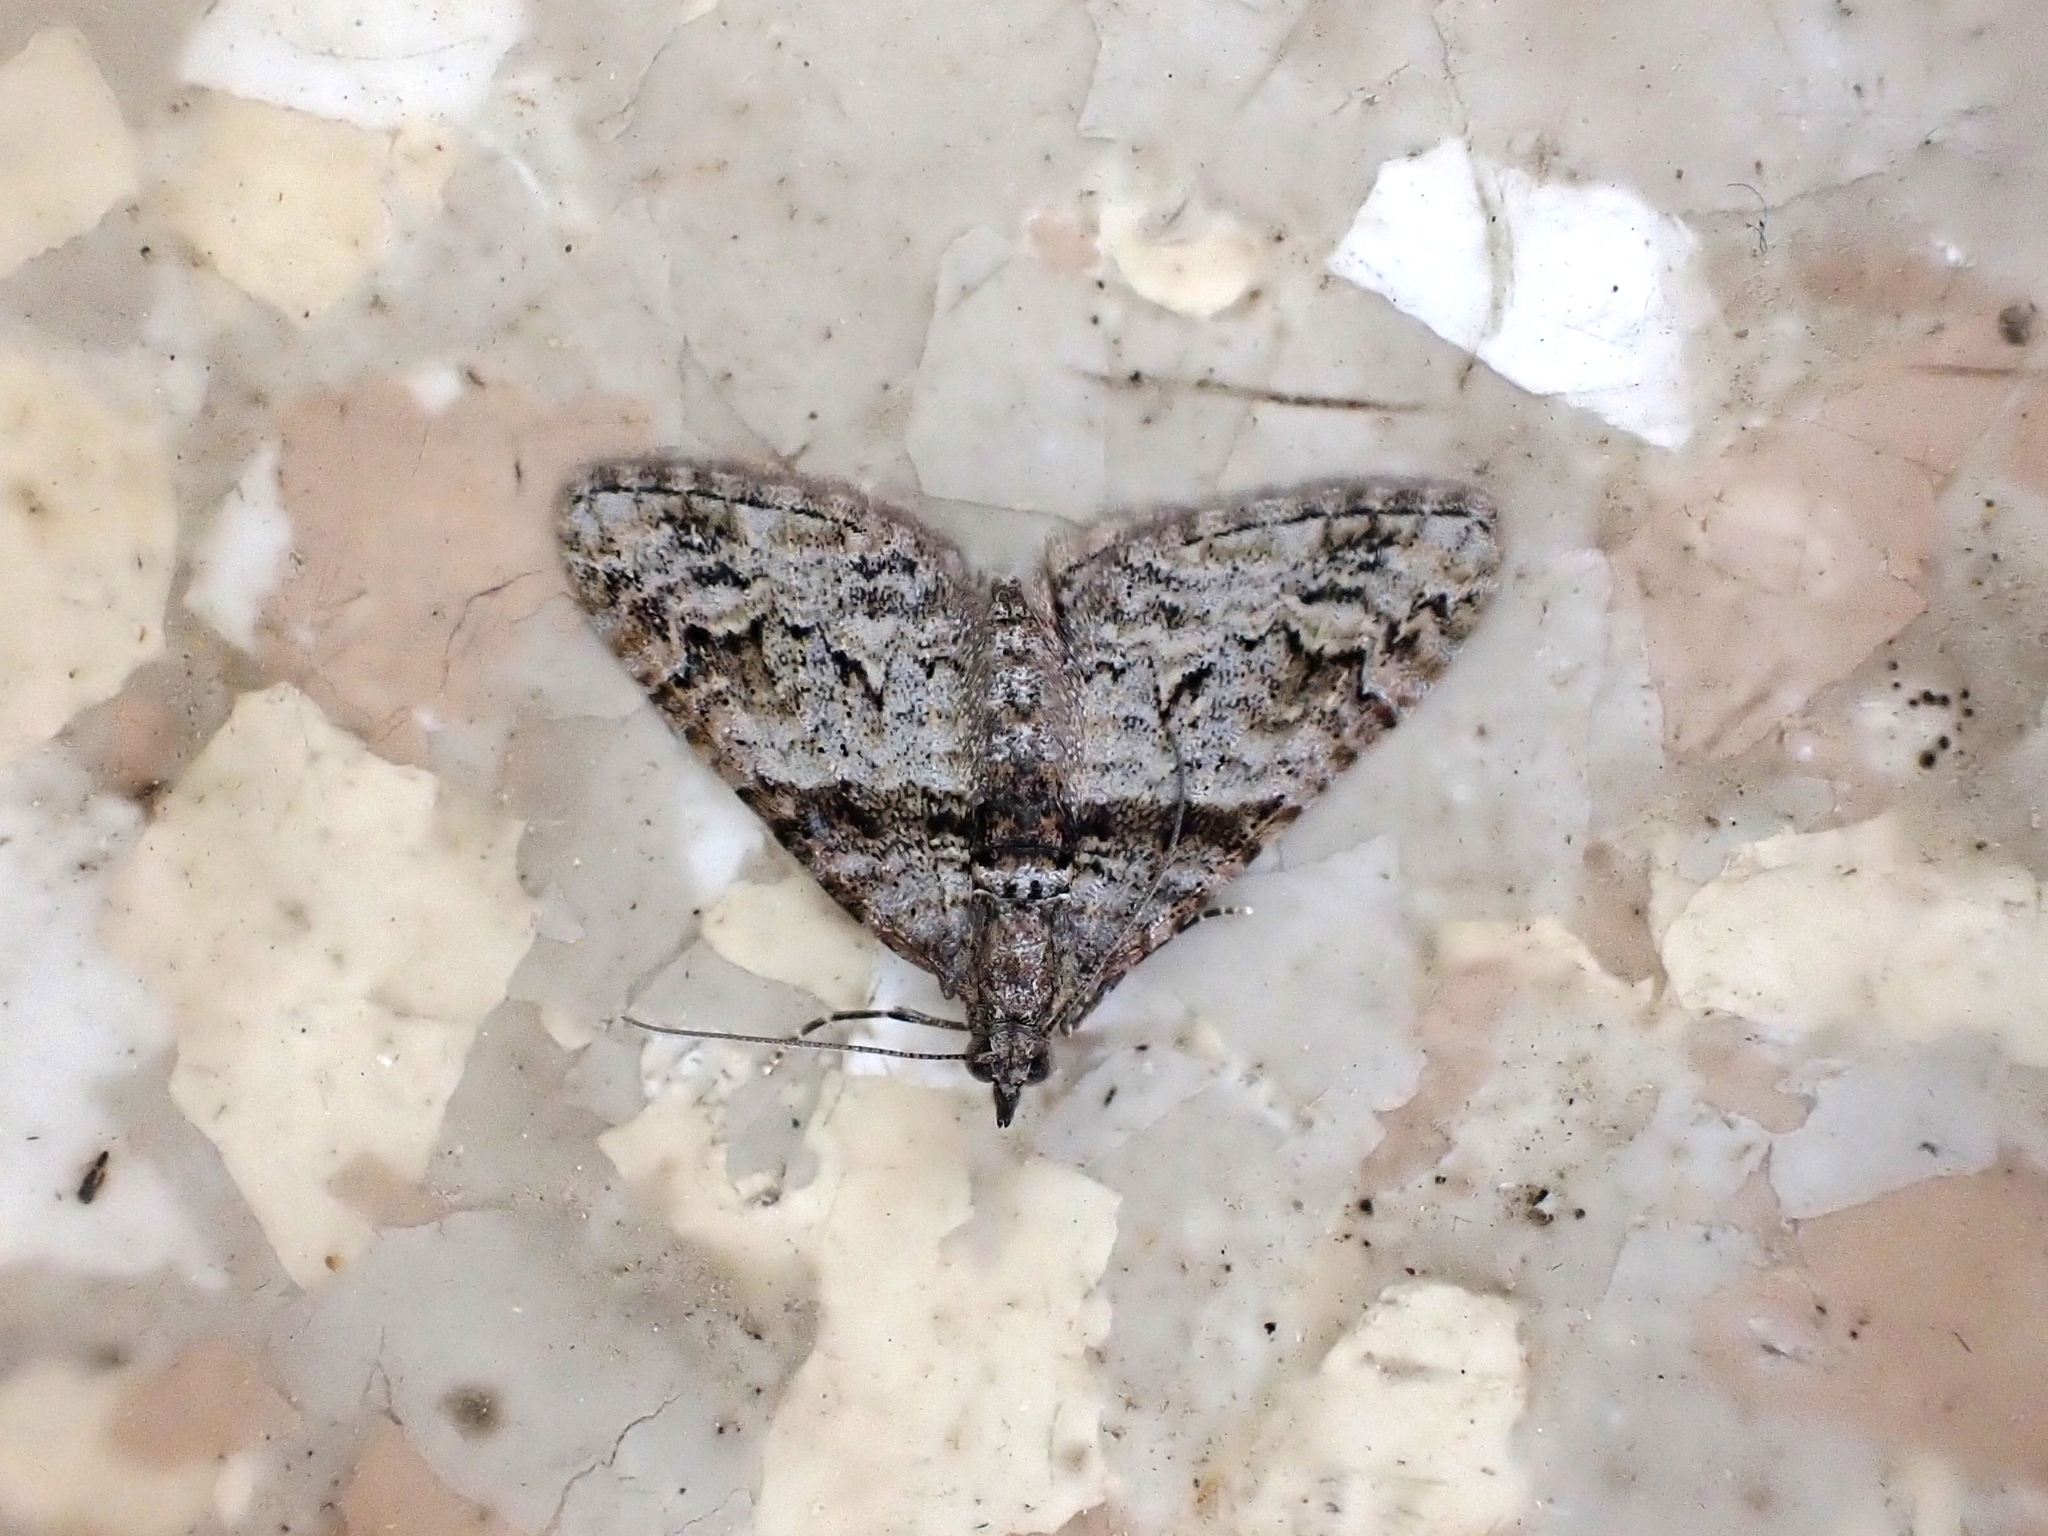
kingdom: Animalia
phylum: Arthropoda
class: Insecta
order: Lepidoptera
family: Geometridae
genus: Phrissogonus
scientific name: Phrissogonus laticostata
